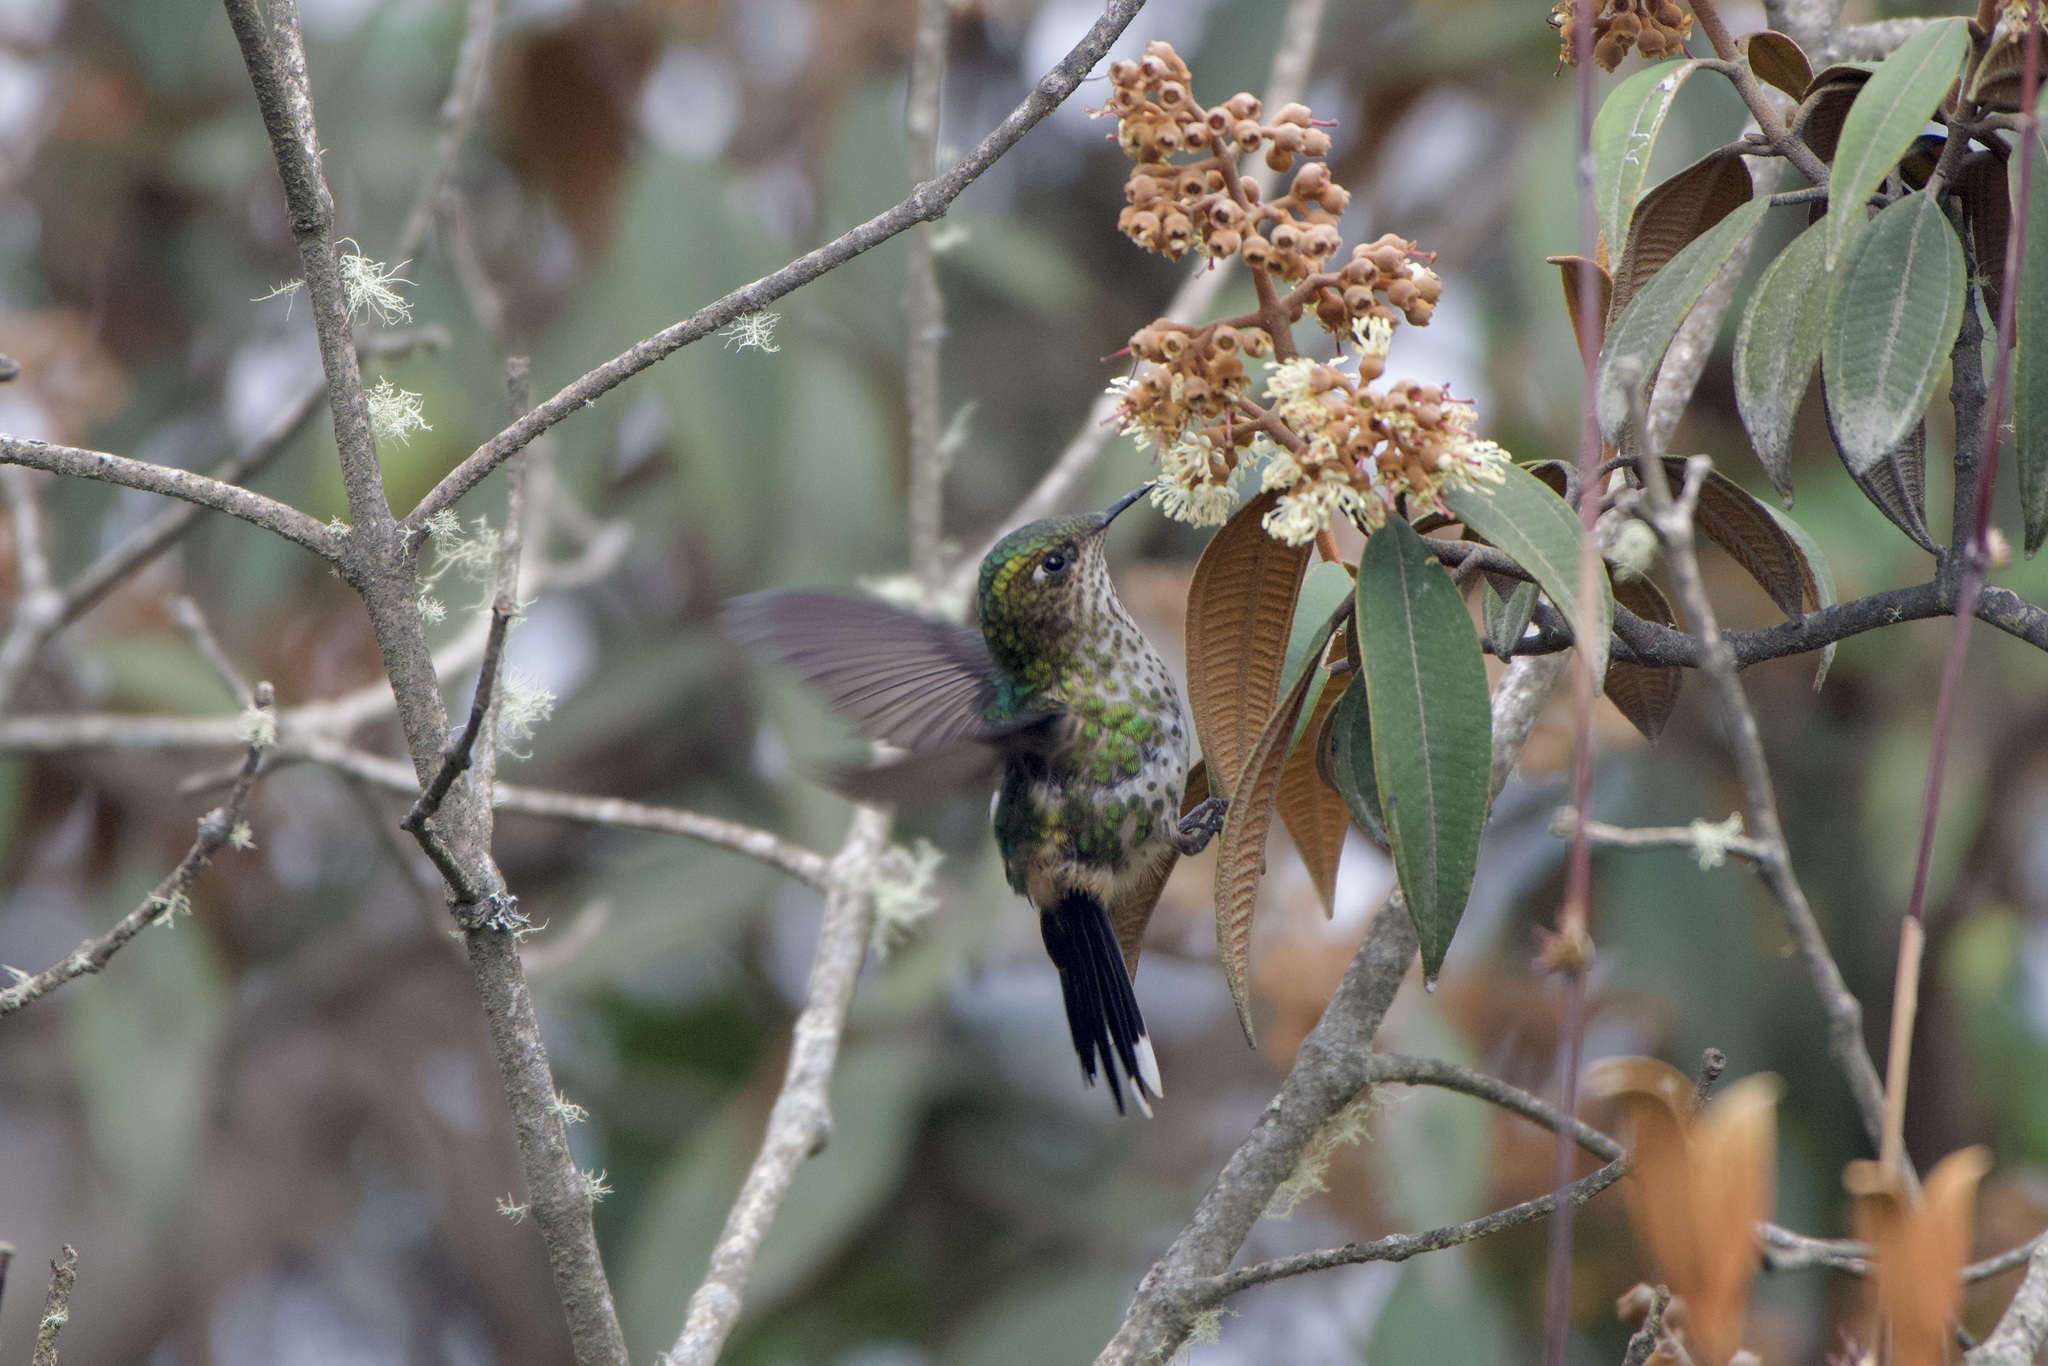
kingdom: Animalia
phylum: Chordata
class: Aves
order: Apodiformes
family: Trochilidae
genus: Ramphomicron
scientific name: Ramphomicron microrhynchum
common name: Purple-backed thornbill
